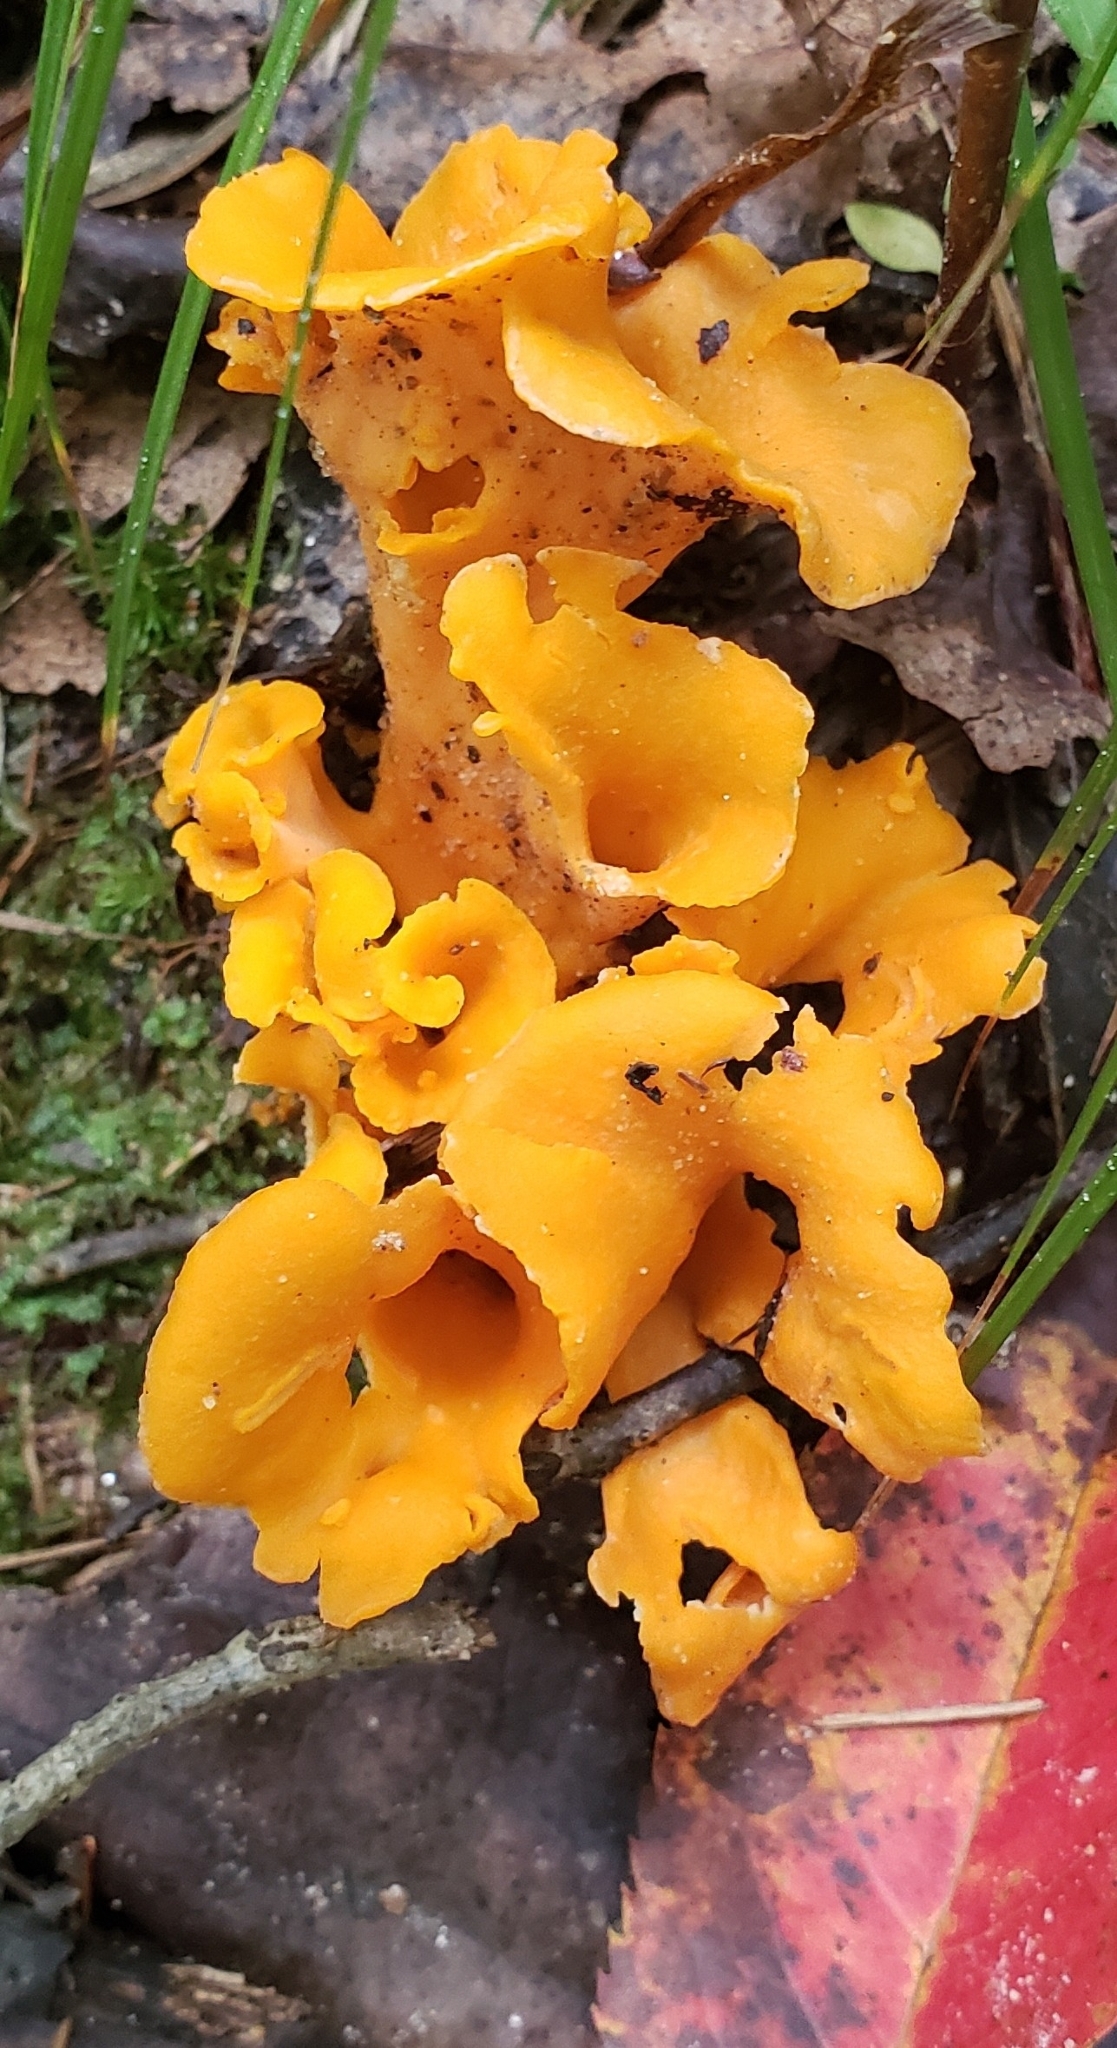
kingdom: Fungi
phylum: Basidiomycota
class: Agaricomycetes
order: Cantharellales
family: Hydnaceae
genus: Cantharellus
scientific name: Cantharellus lateritius
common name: Smooth chanterelle
